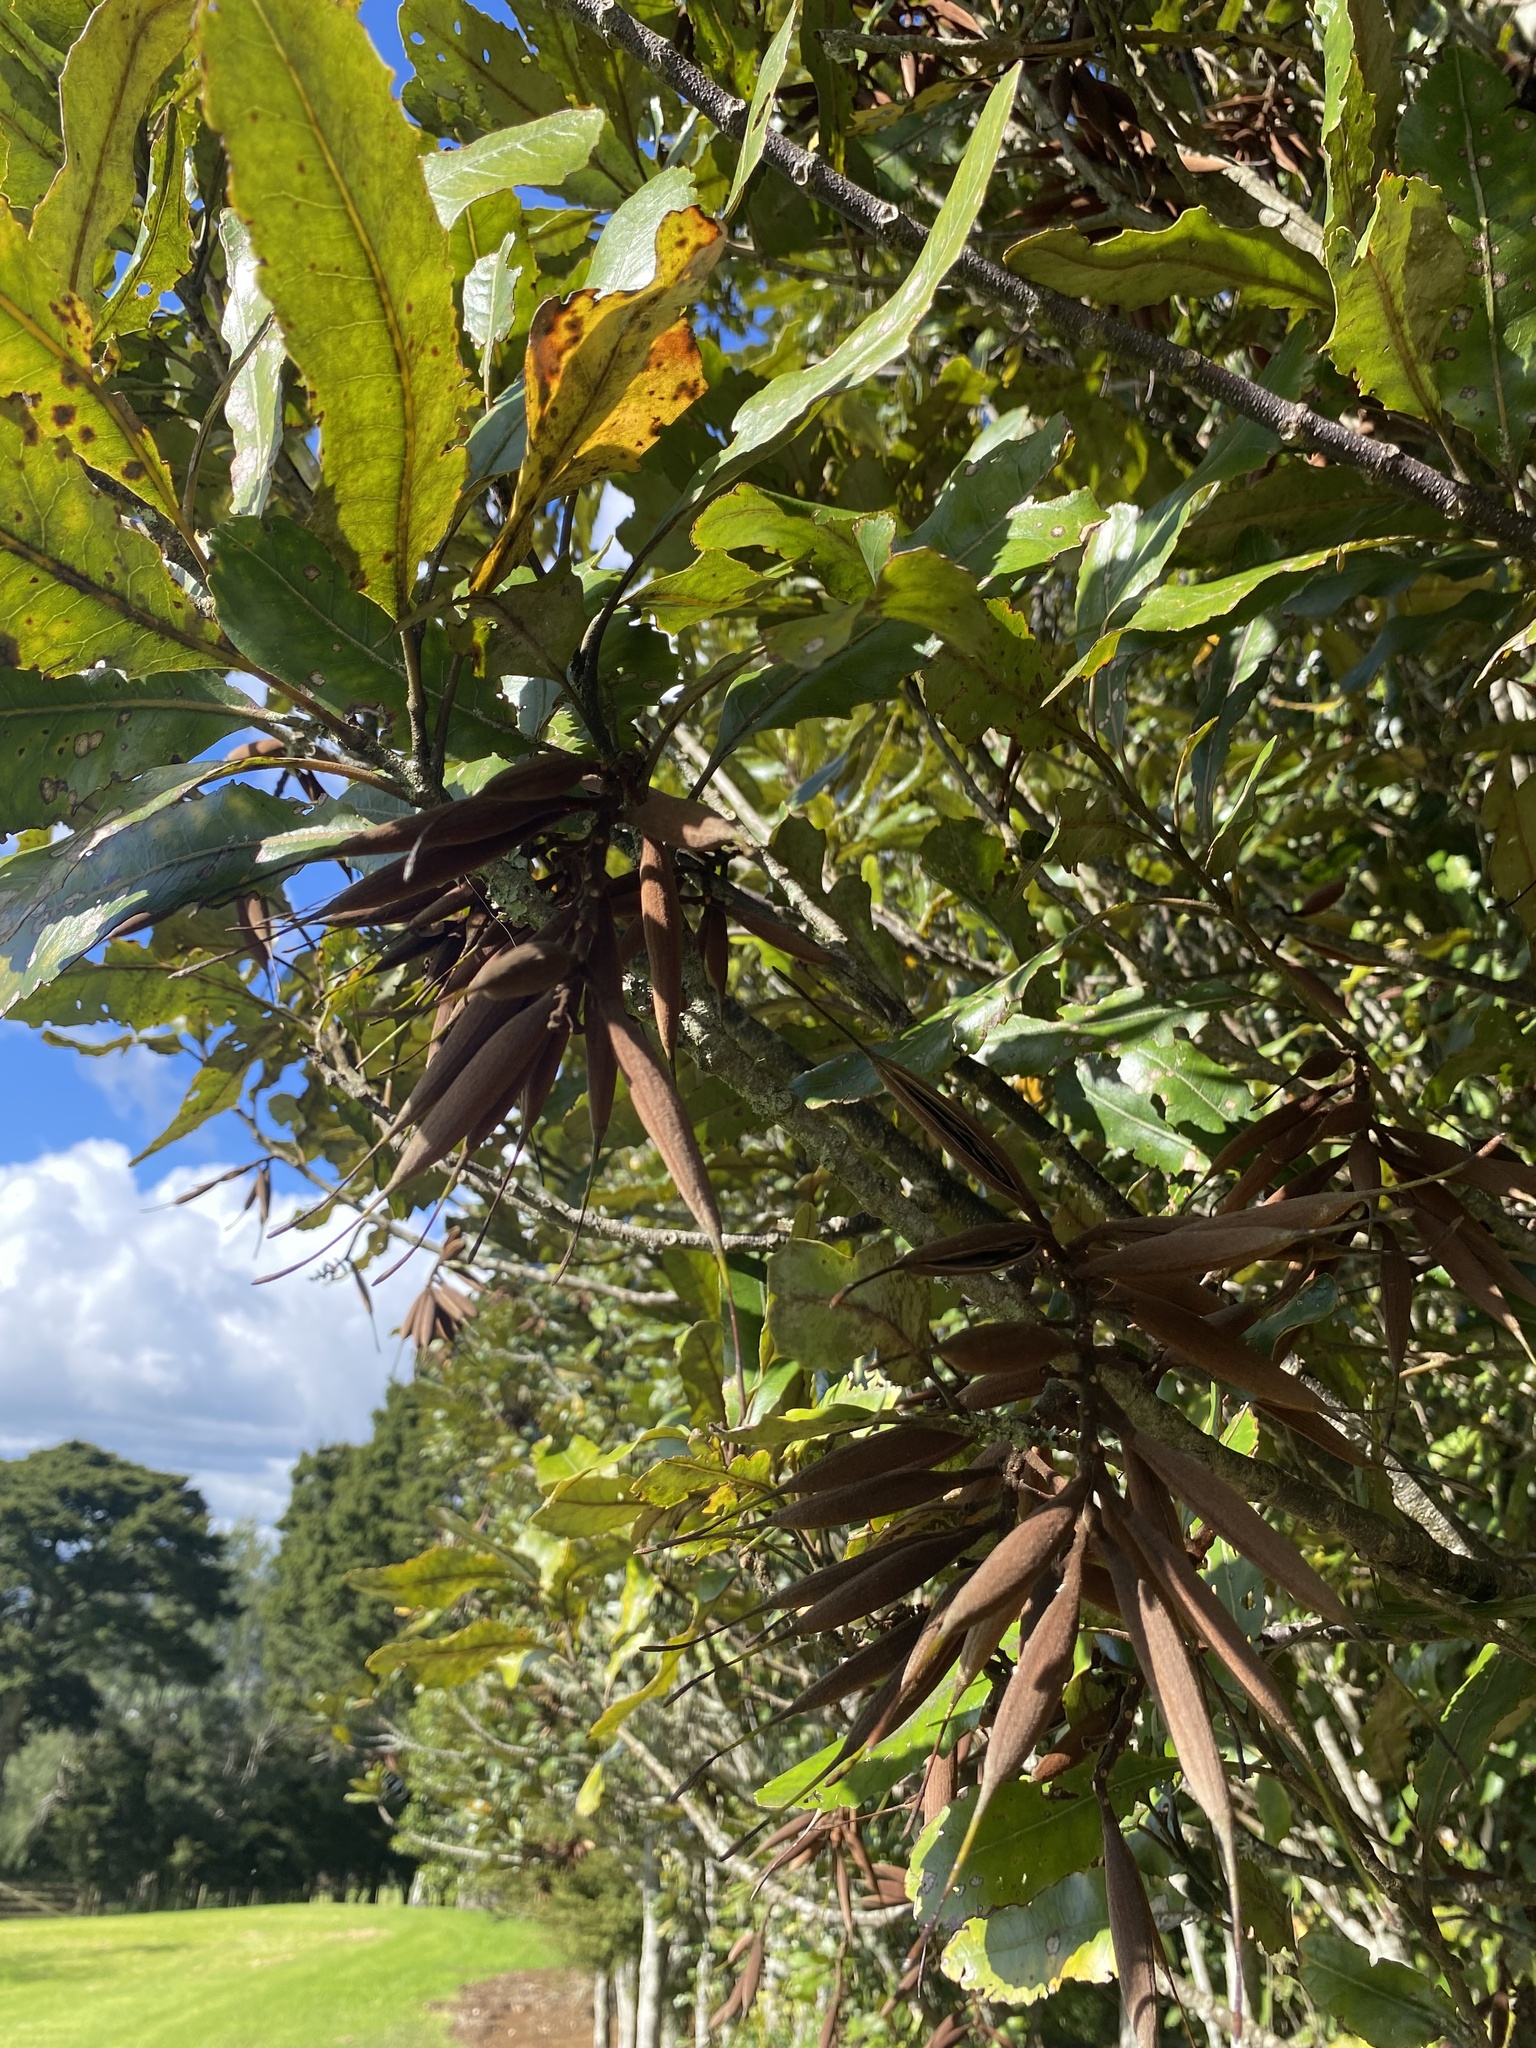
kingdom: Plantae
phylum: Tracheophyta
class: Magnoliopsida
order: Proteales
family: Proteaceae
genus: Knightia
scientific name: Knightia excelsa
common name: New zealand-honeysuckle
